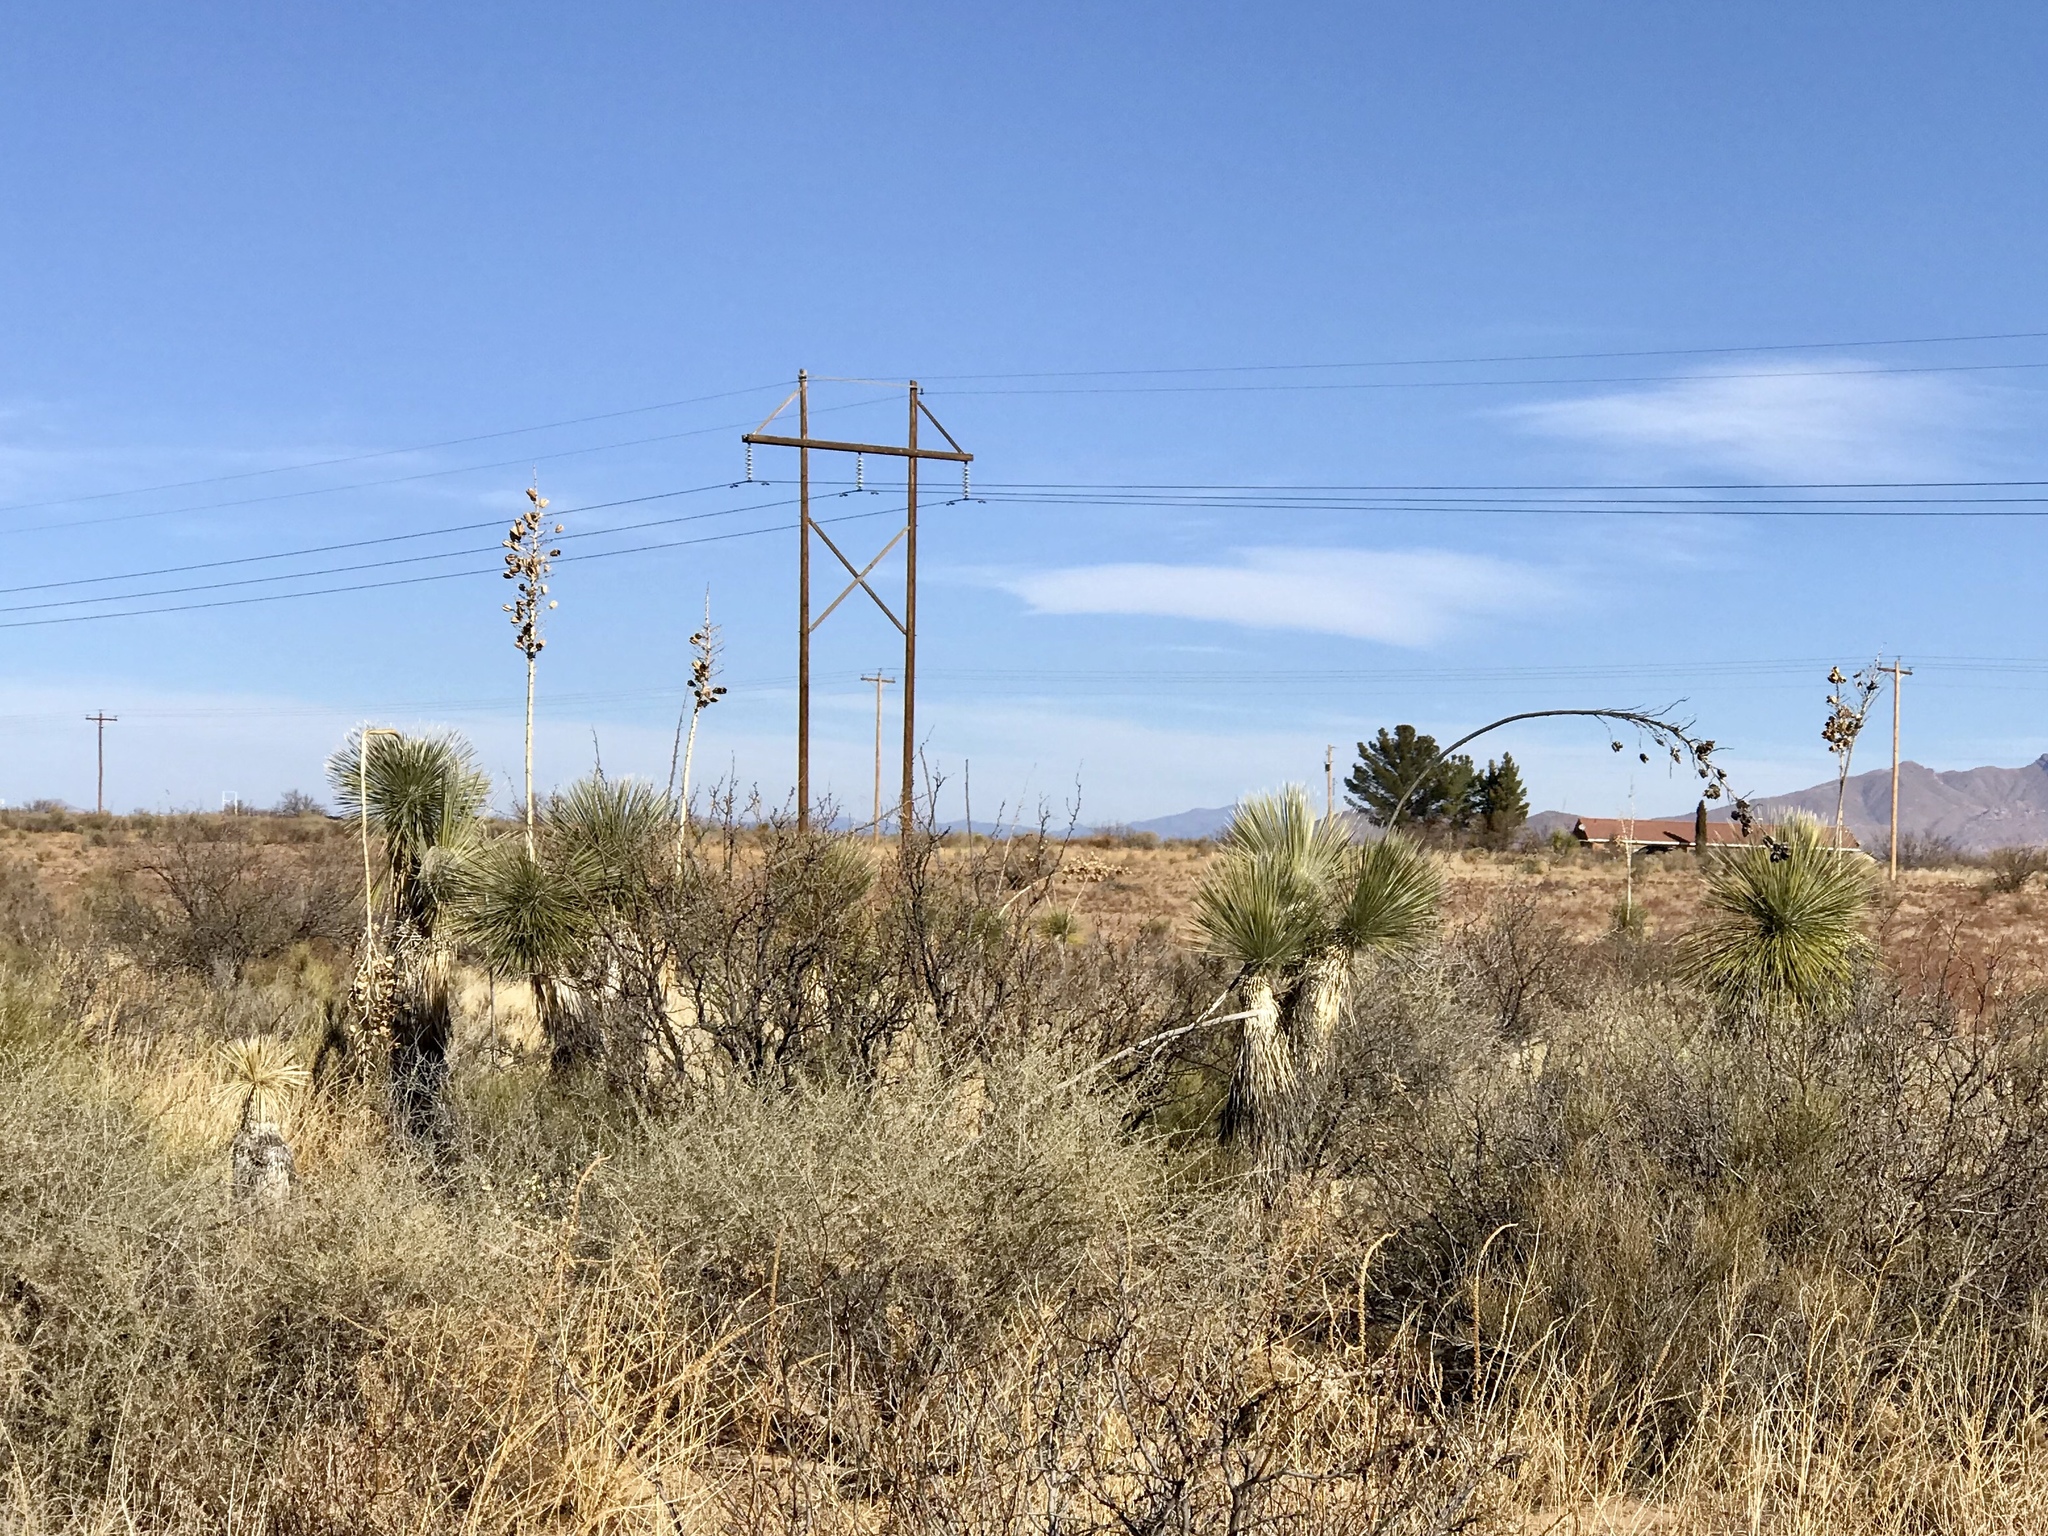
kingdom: Plantae
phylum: Tracheophyta
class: Liliopsida
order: Asparagales
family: Asparagaceae
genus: Yucca
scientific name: Yucca elata
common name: Palmella
